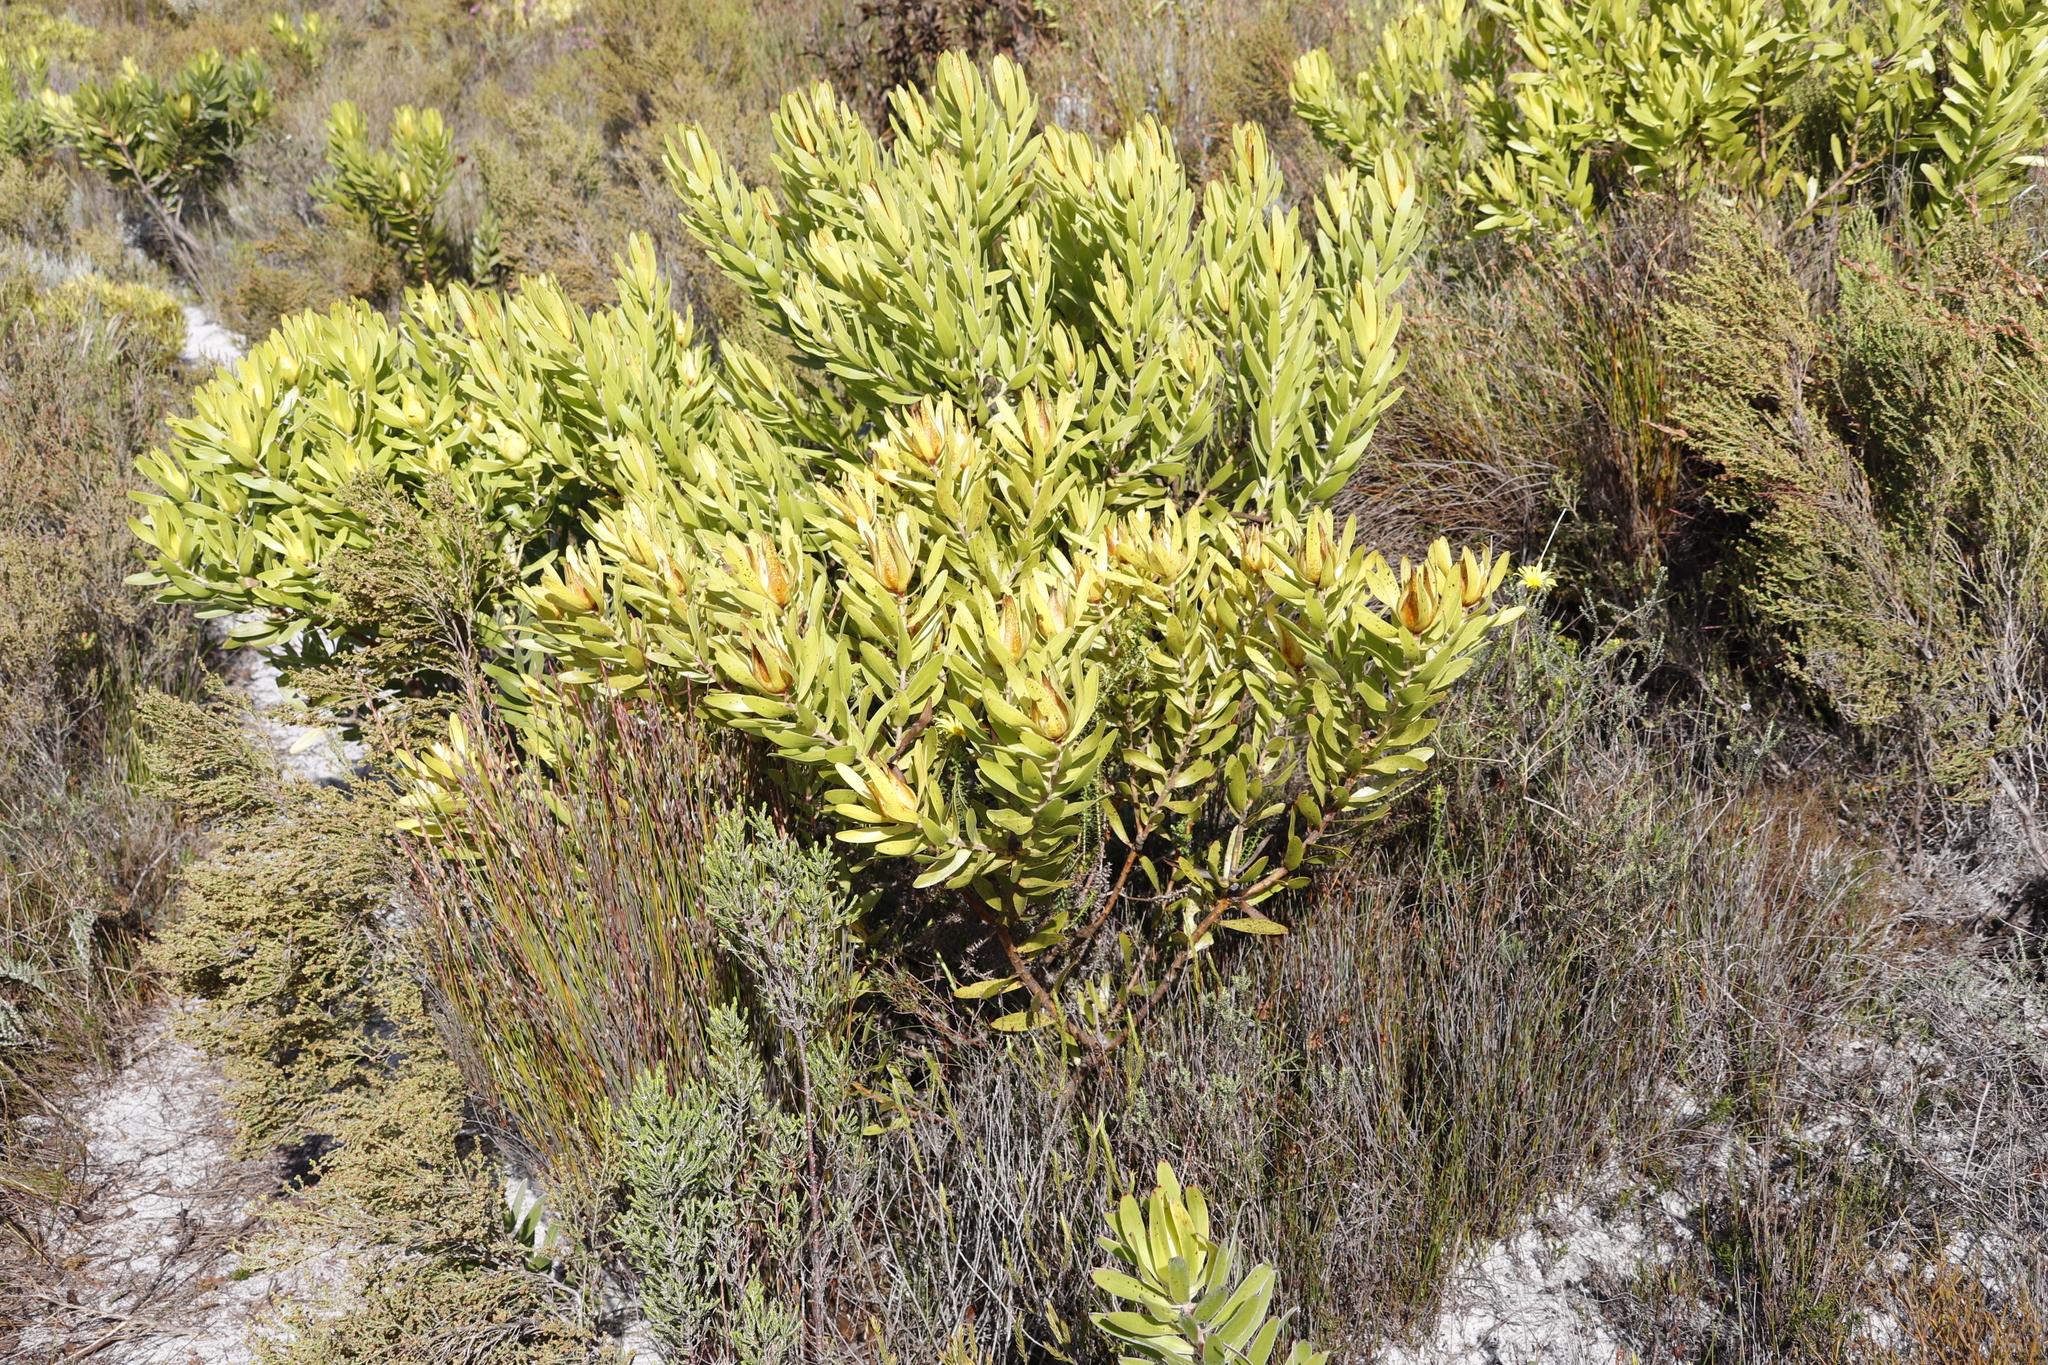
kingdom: Plantae
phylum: Tracheophyta
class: Magnoliopsida
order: Proteales
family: Proteaceae
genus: Leucadendron
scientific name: Leucadendron laureolum
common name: Golden sunshinebush
